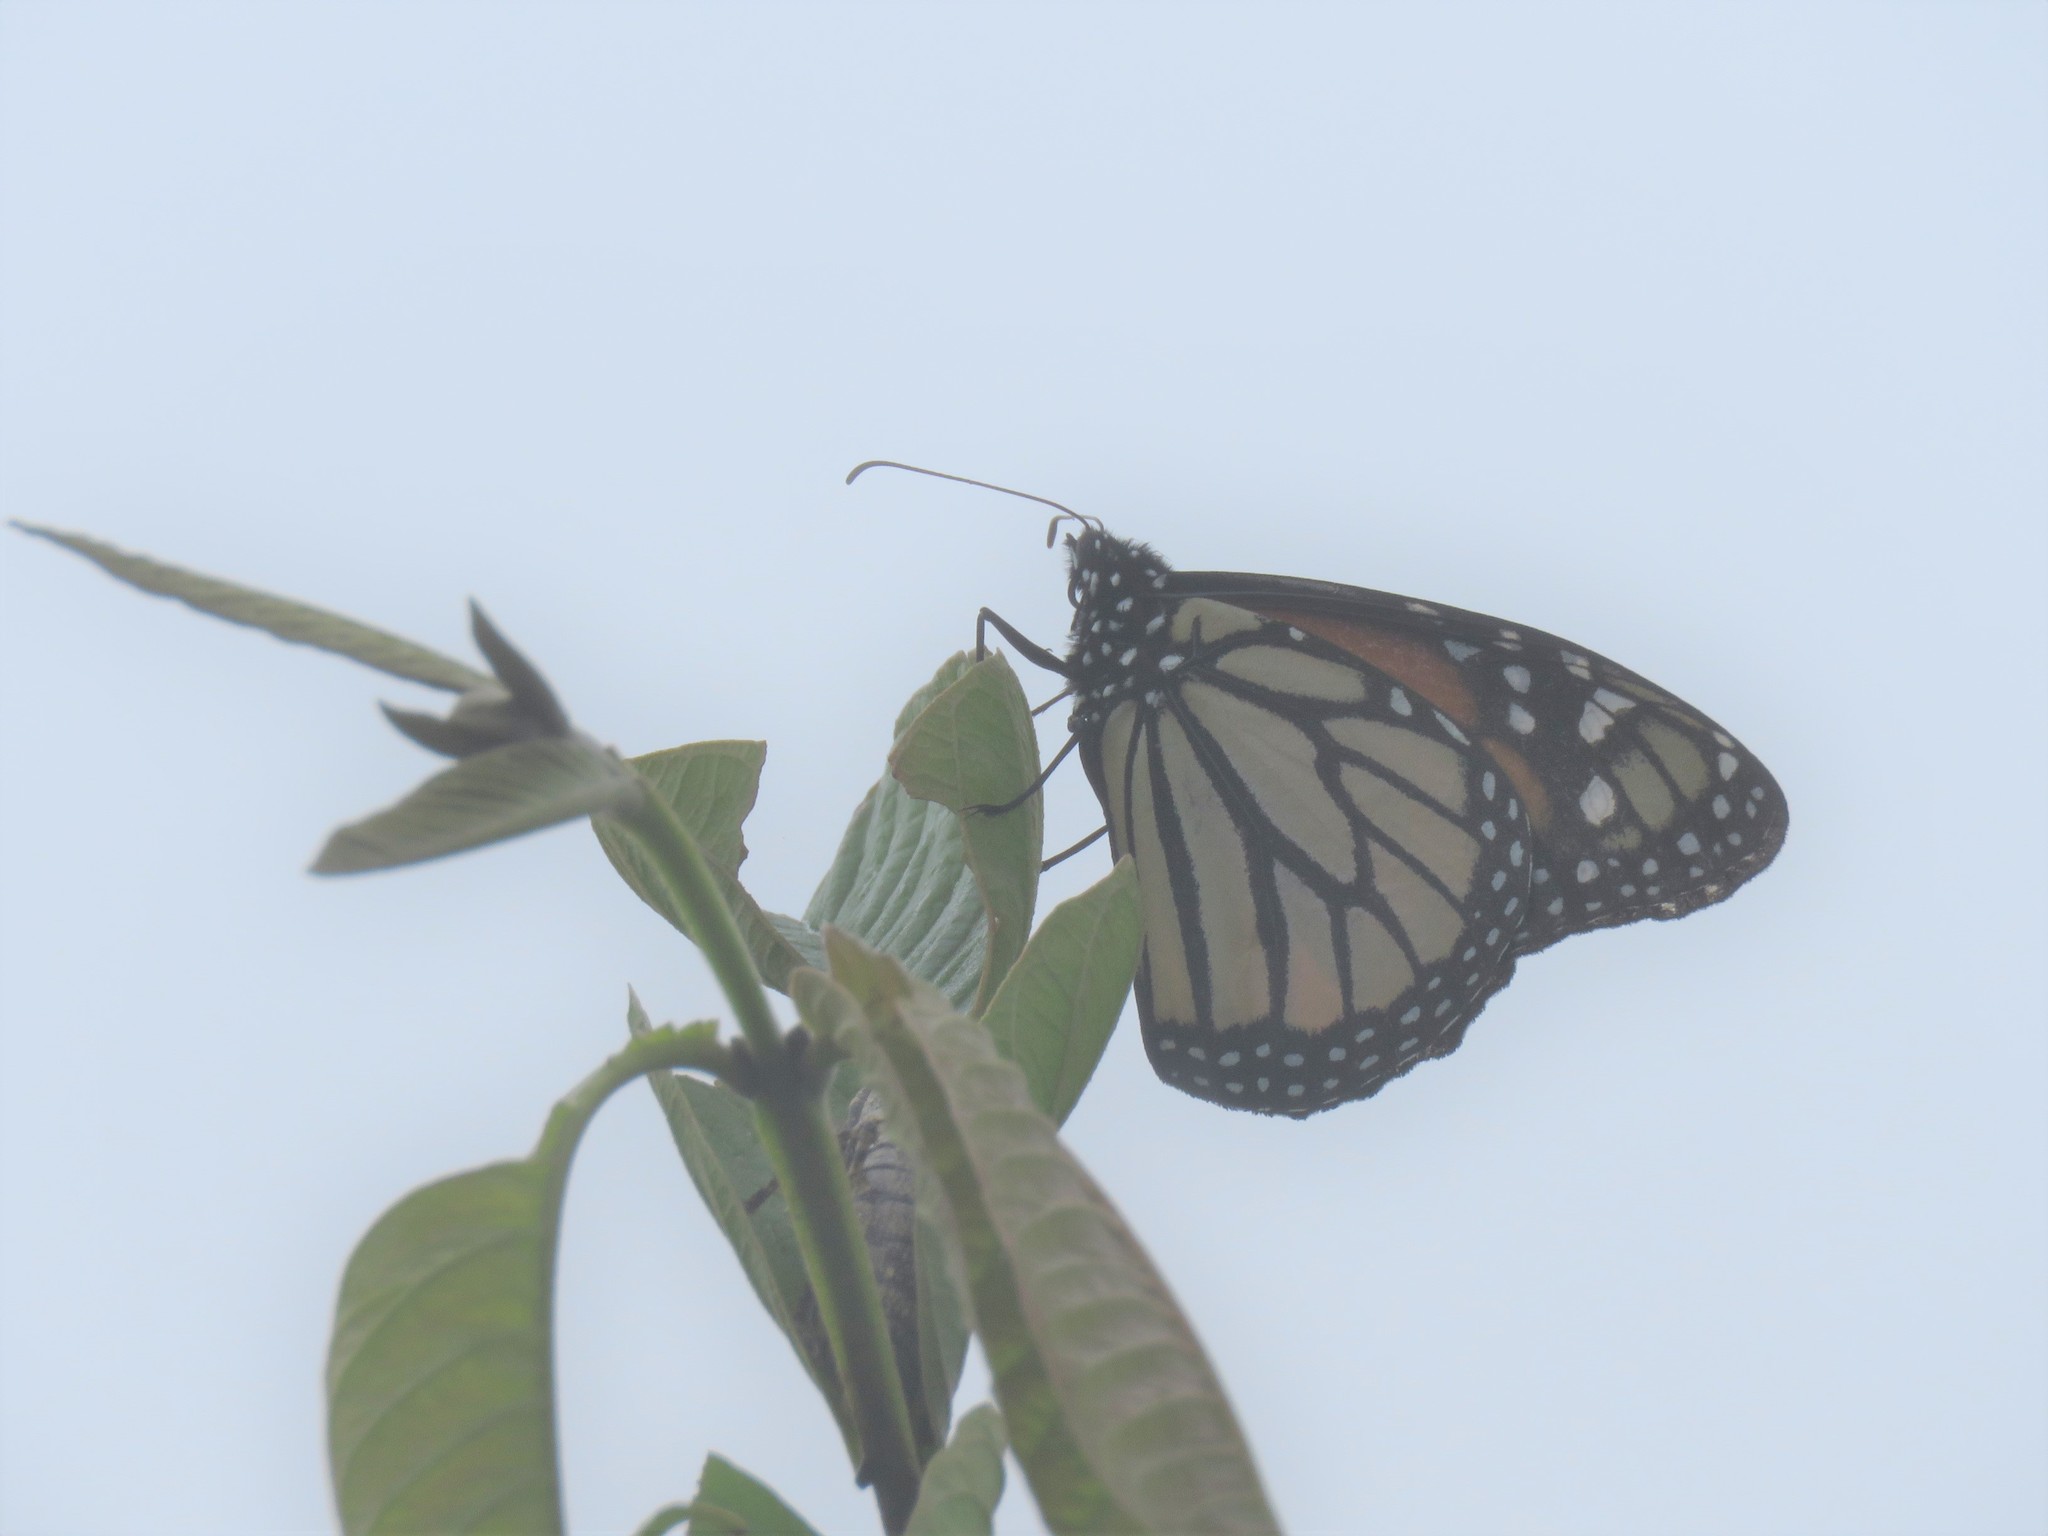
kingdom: Animalia
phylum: Arthropoda
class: Insecta
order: Lepidoptera
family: Nymphalidae
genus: Danaus
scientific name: Danaus plexippus
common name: Monarch
